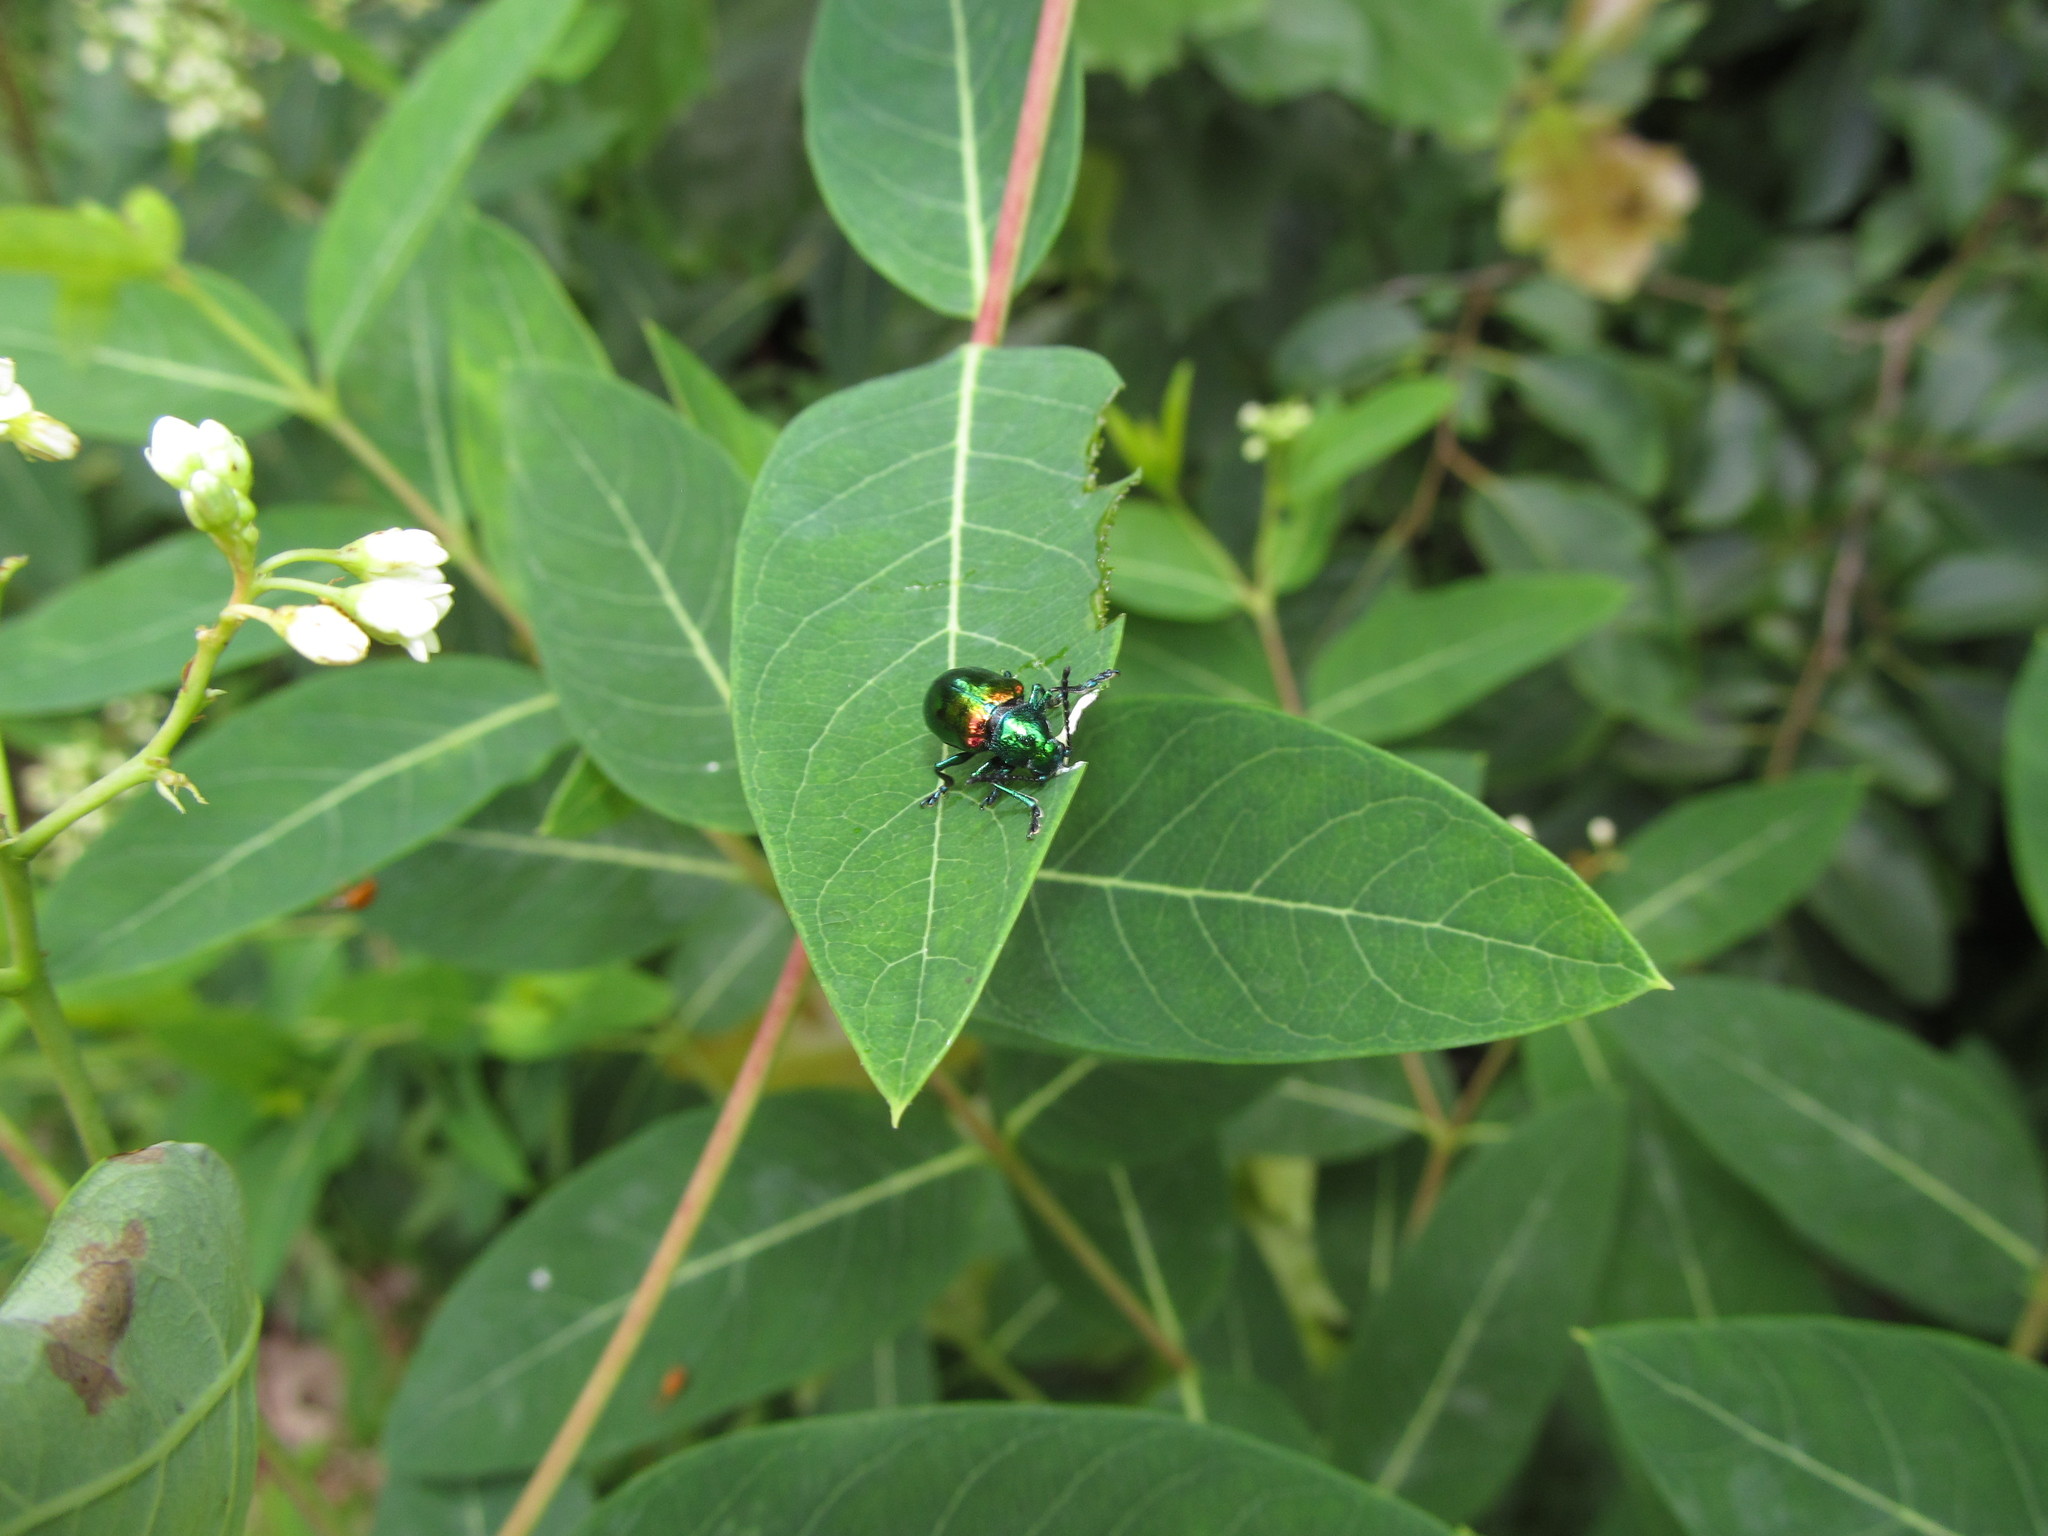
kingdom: Animalia
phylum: Arthropoda
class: Insecta
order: Coleoptera
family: Chrysomelidae
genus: Chrysochus
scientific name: Chrysochus auratus
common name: Dogbane leaf beetle
